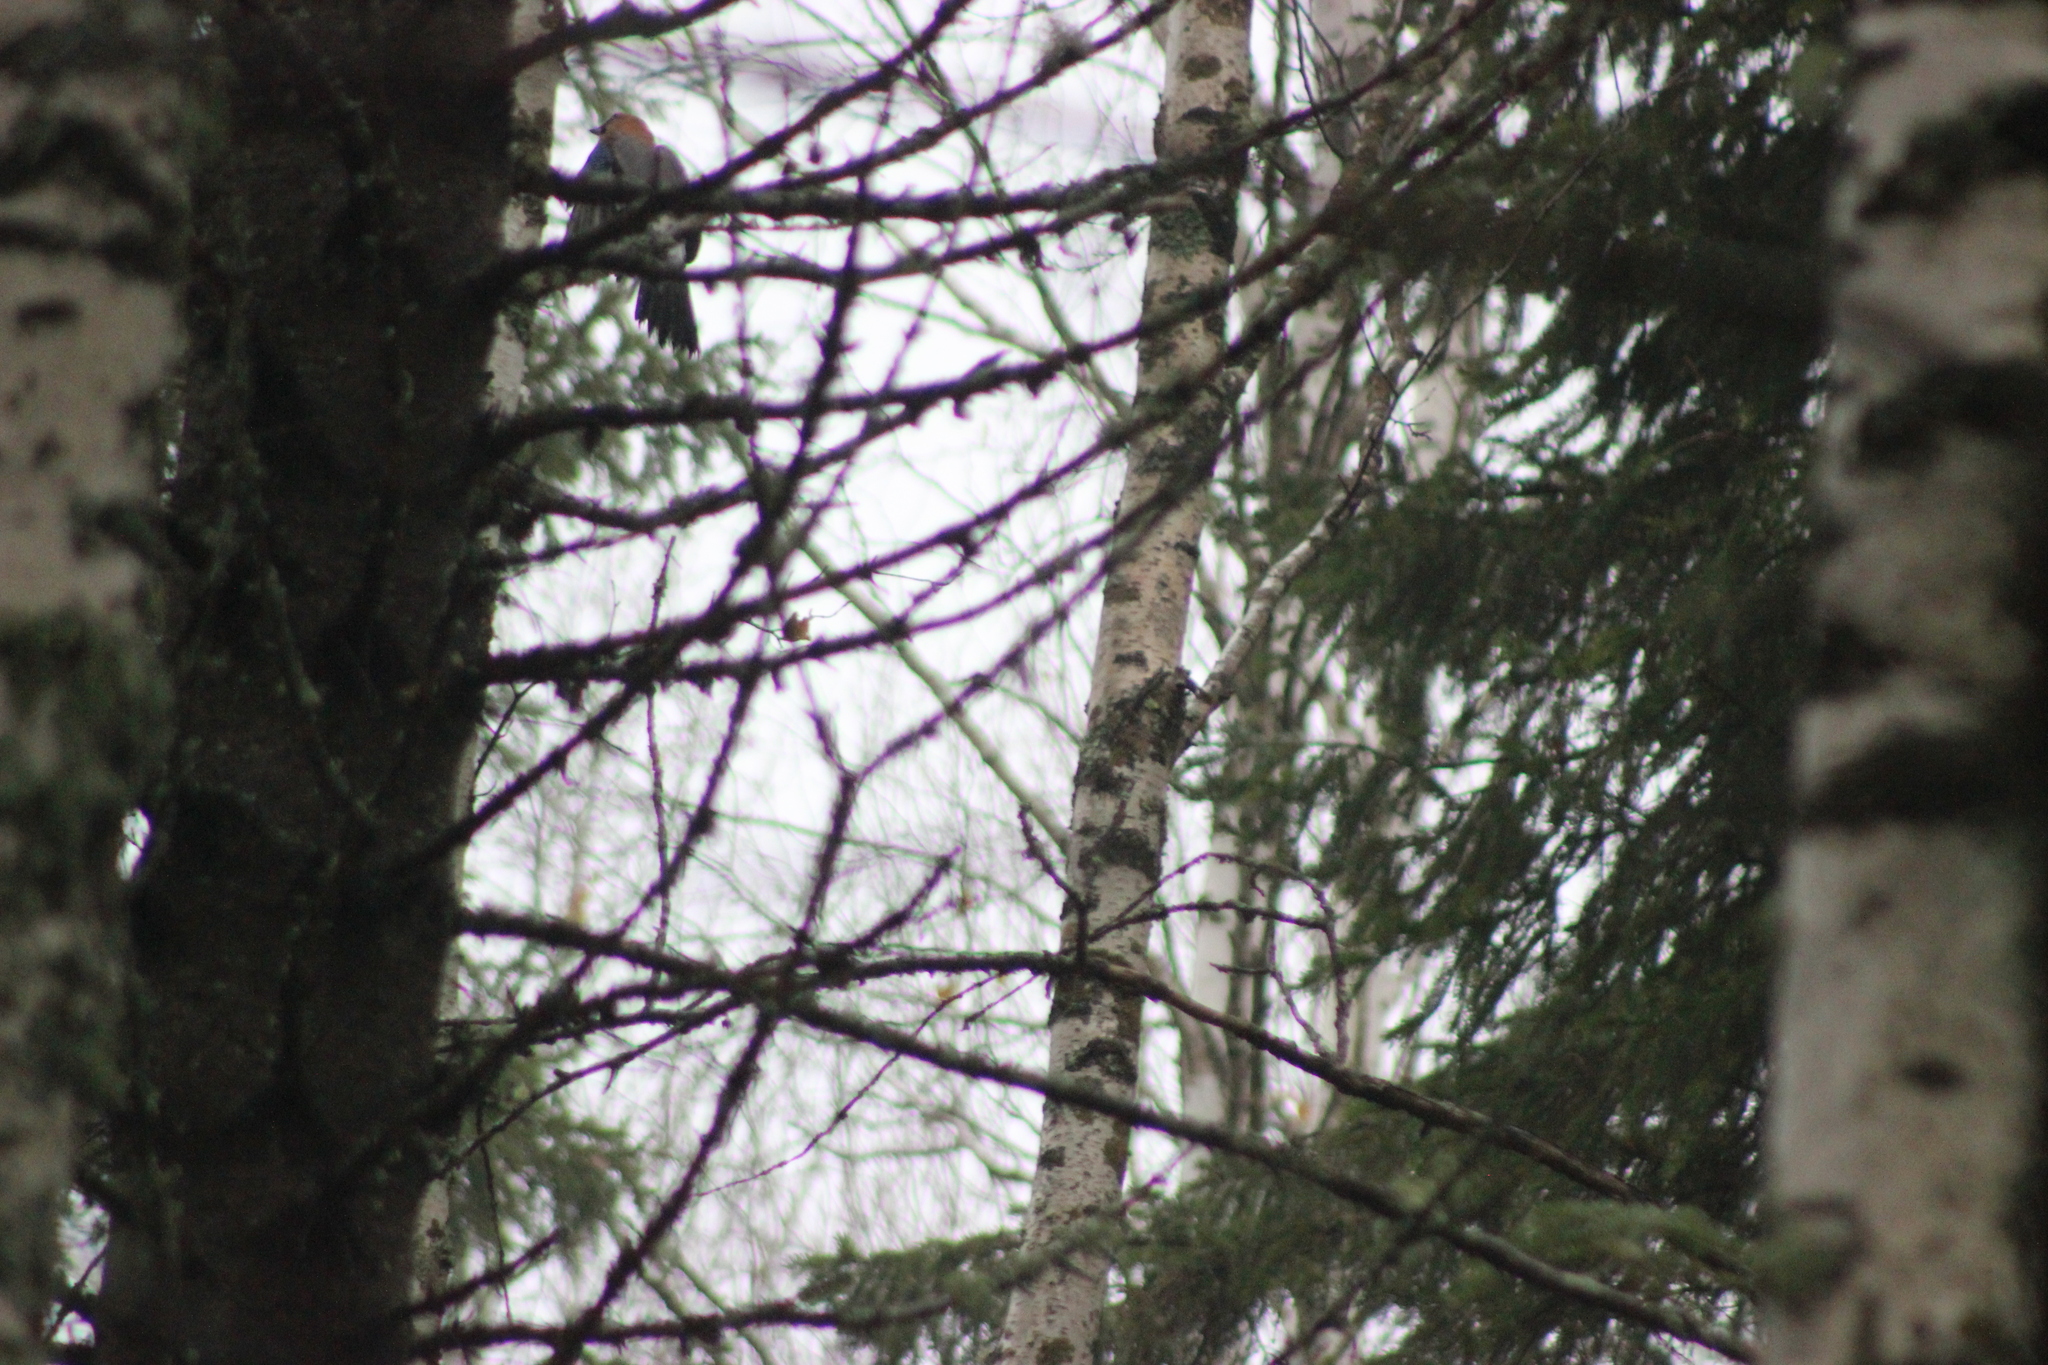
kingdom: Animalia
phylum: Chordata
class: Aves
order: Passeriformes
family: Corvidae
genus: Garrulus
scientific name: Garrulus glandarius
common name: Eurasian jay
